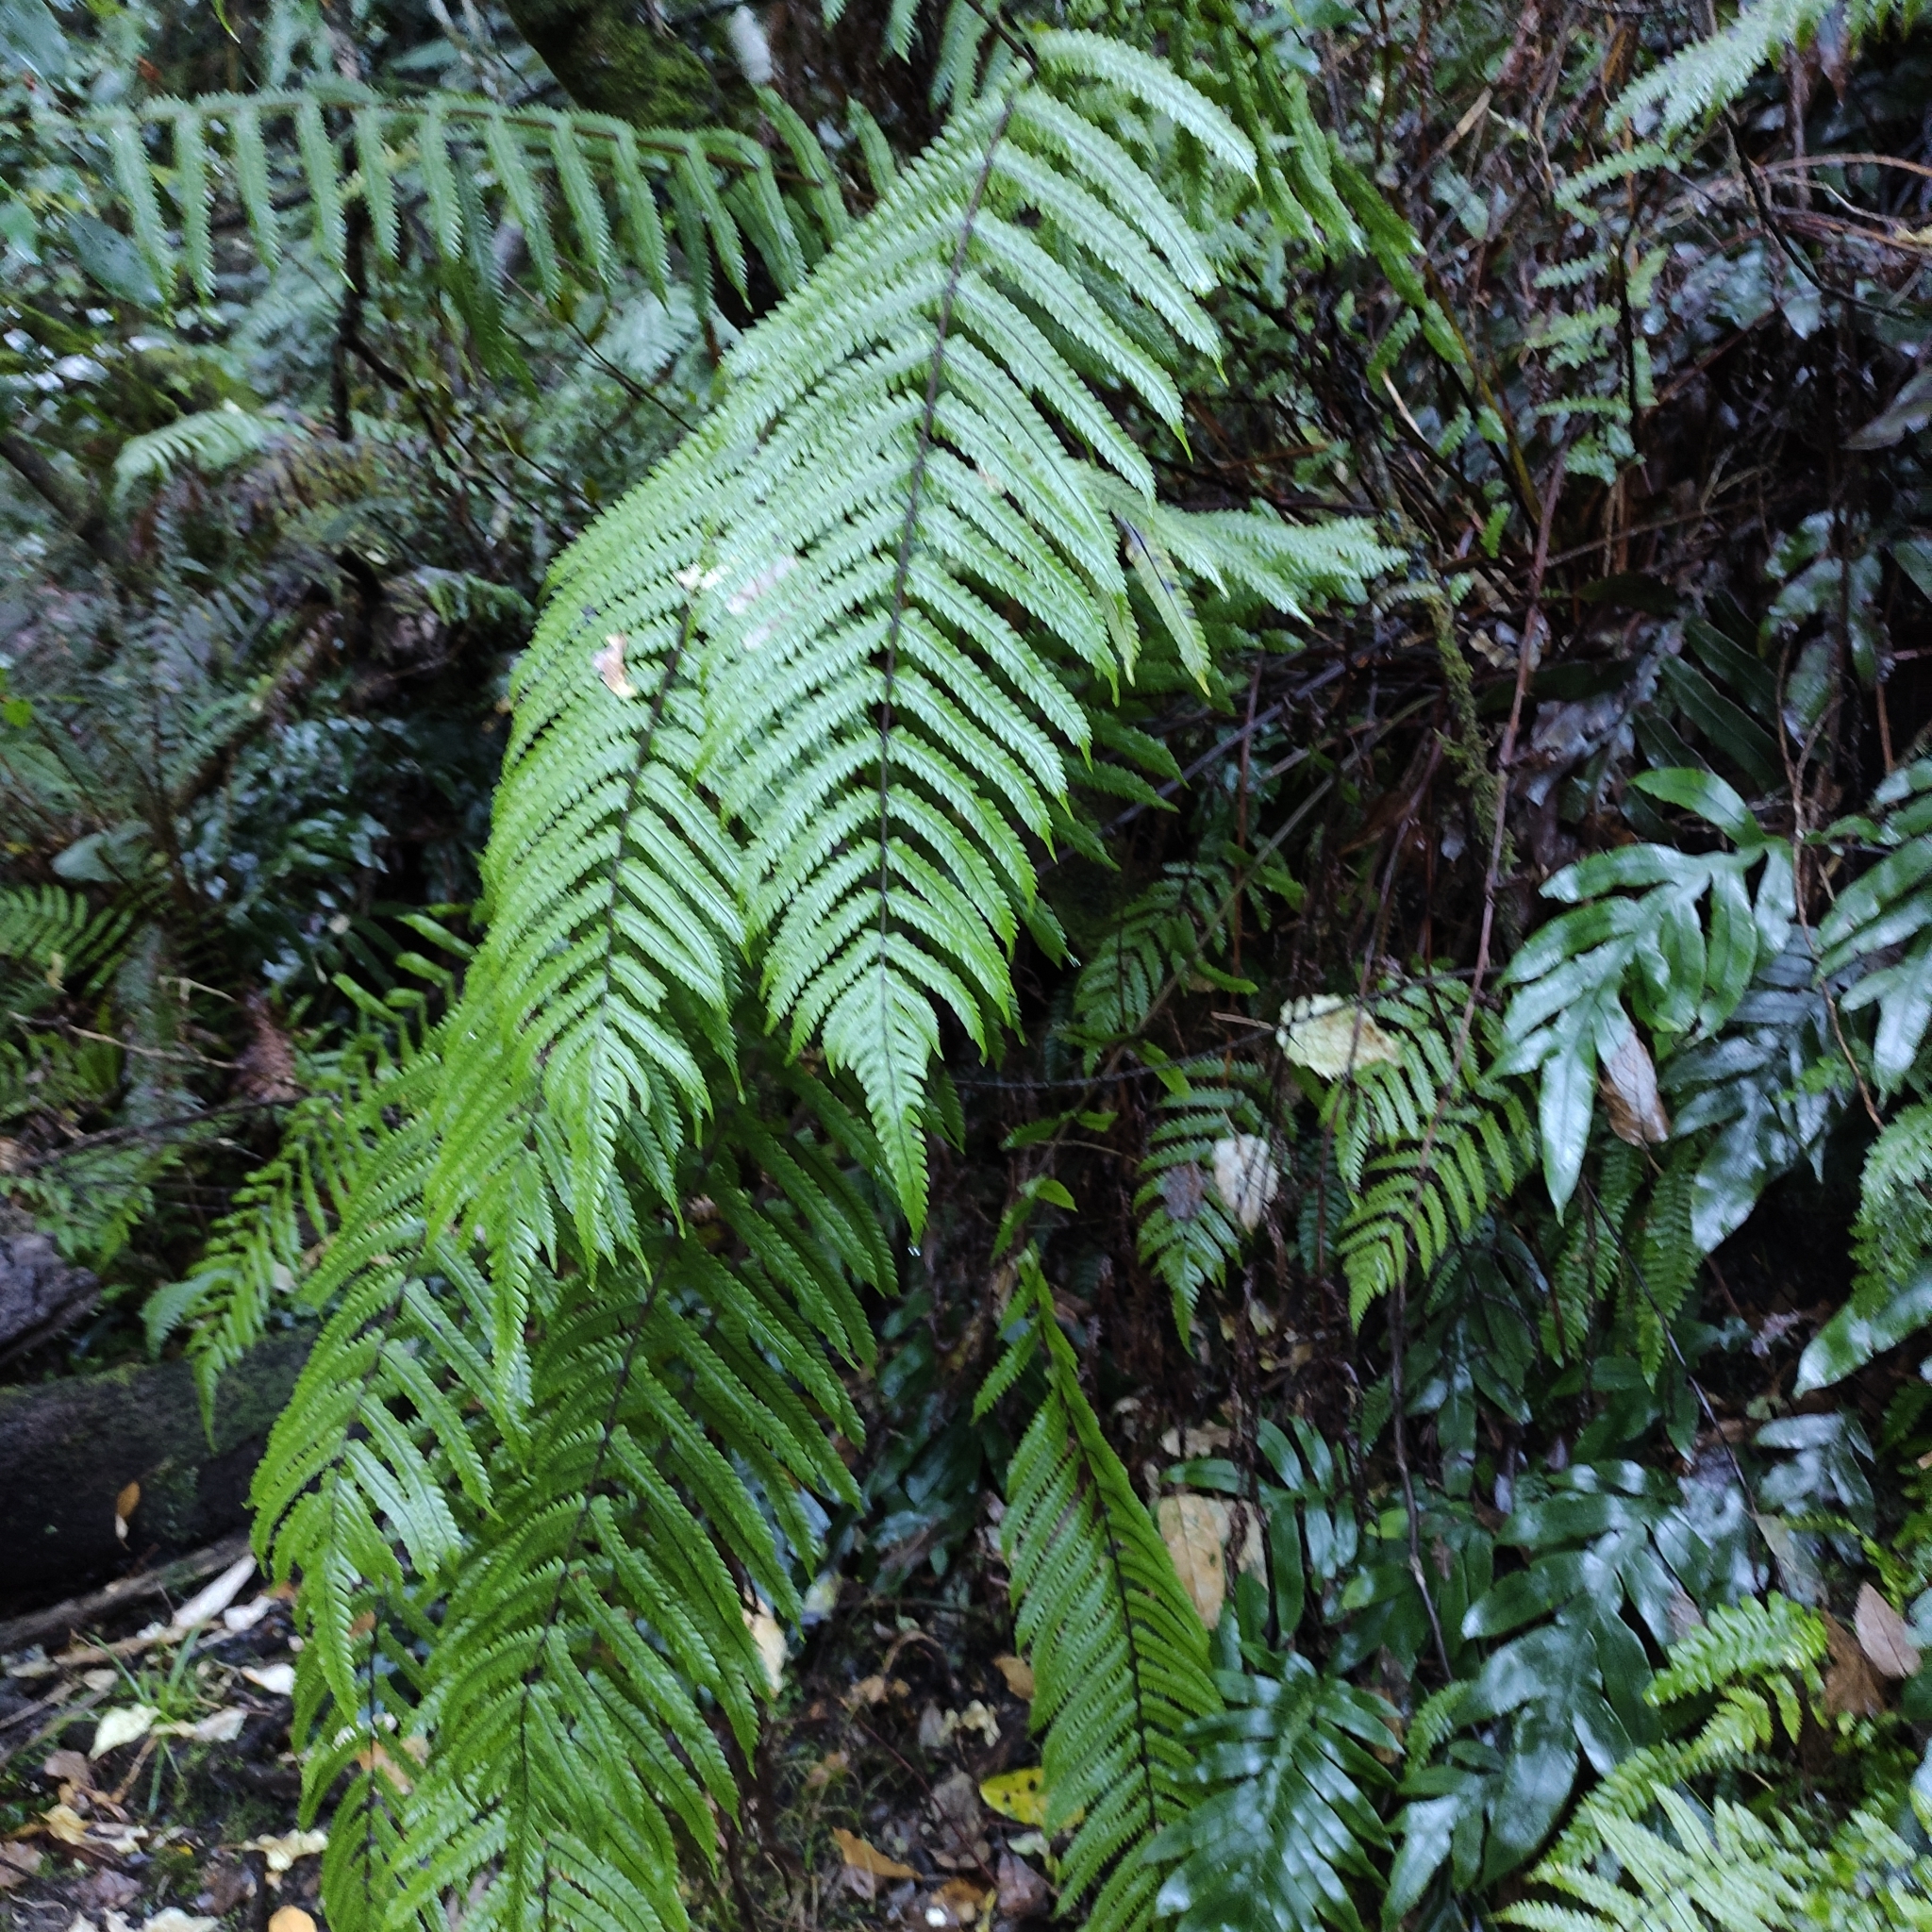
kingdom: Plantae
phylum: Tracheophyta
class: Polypodiopsida
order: Polypodiales
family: Thelypteridaceae
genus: Pakau
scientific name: Pakau pennigera
